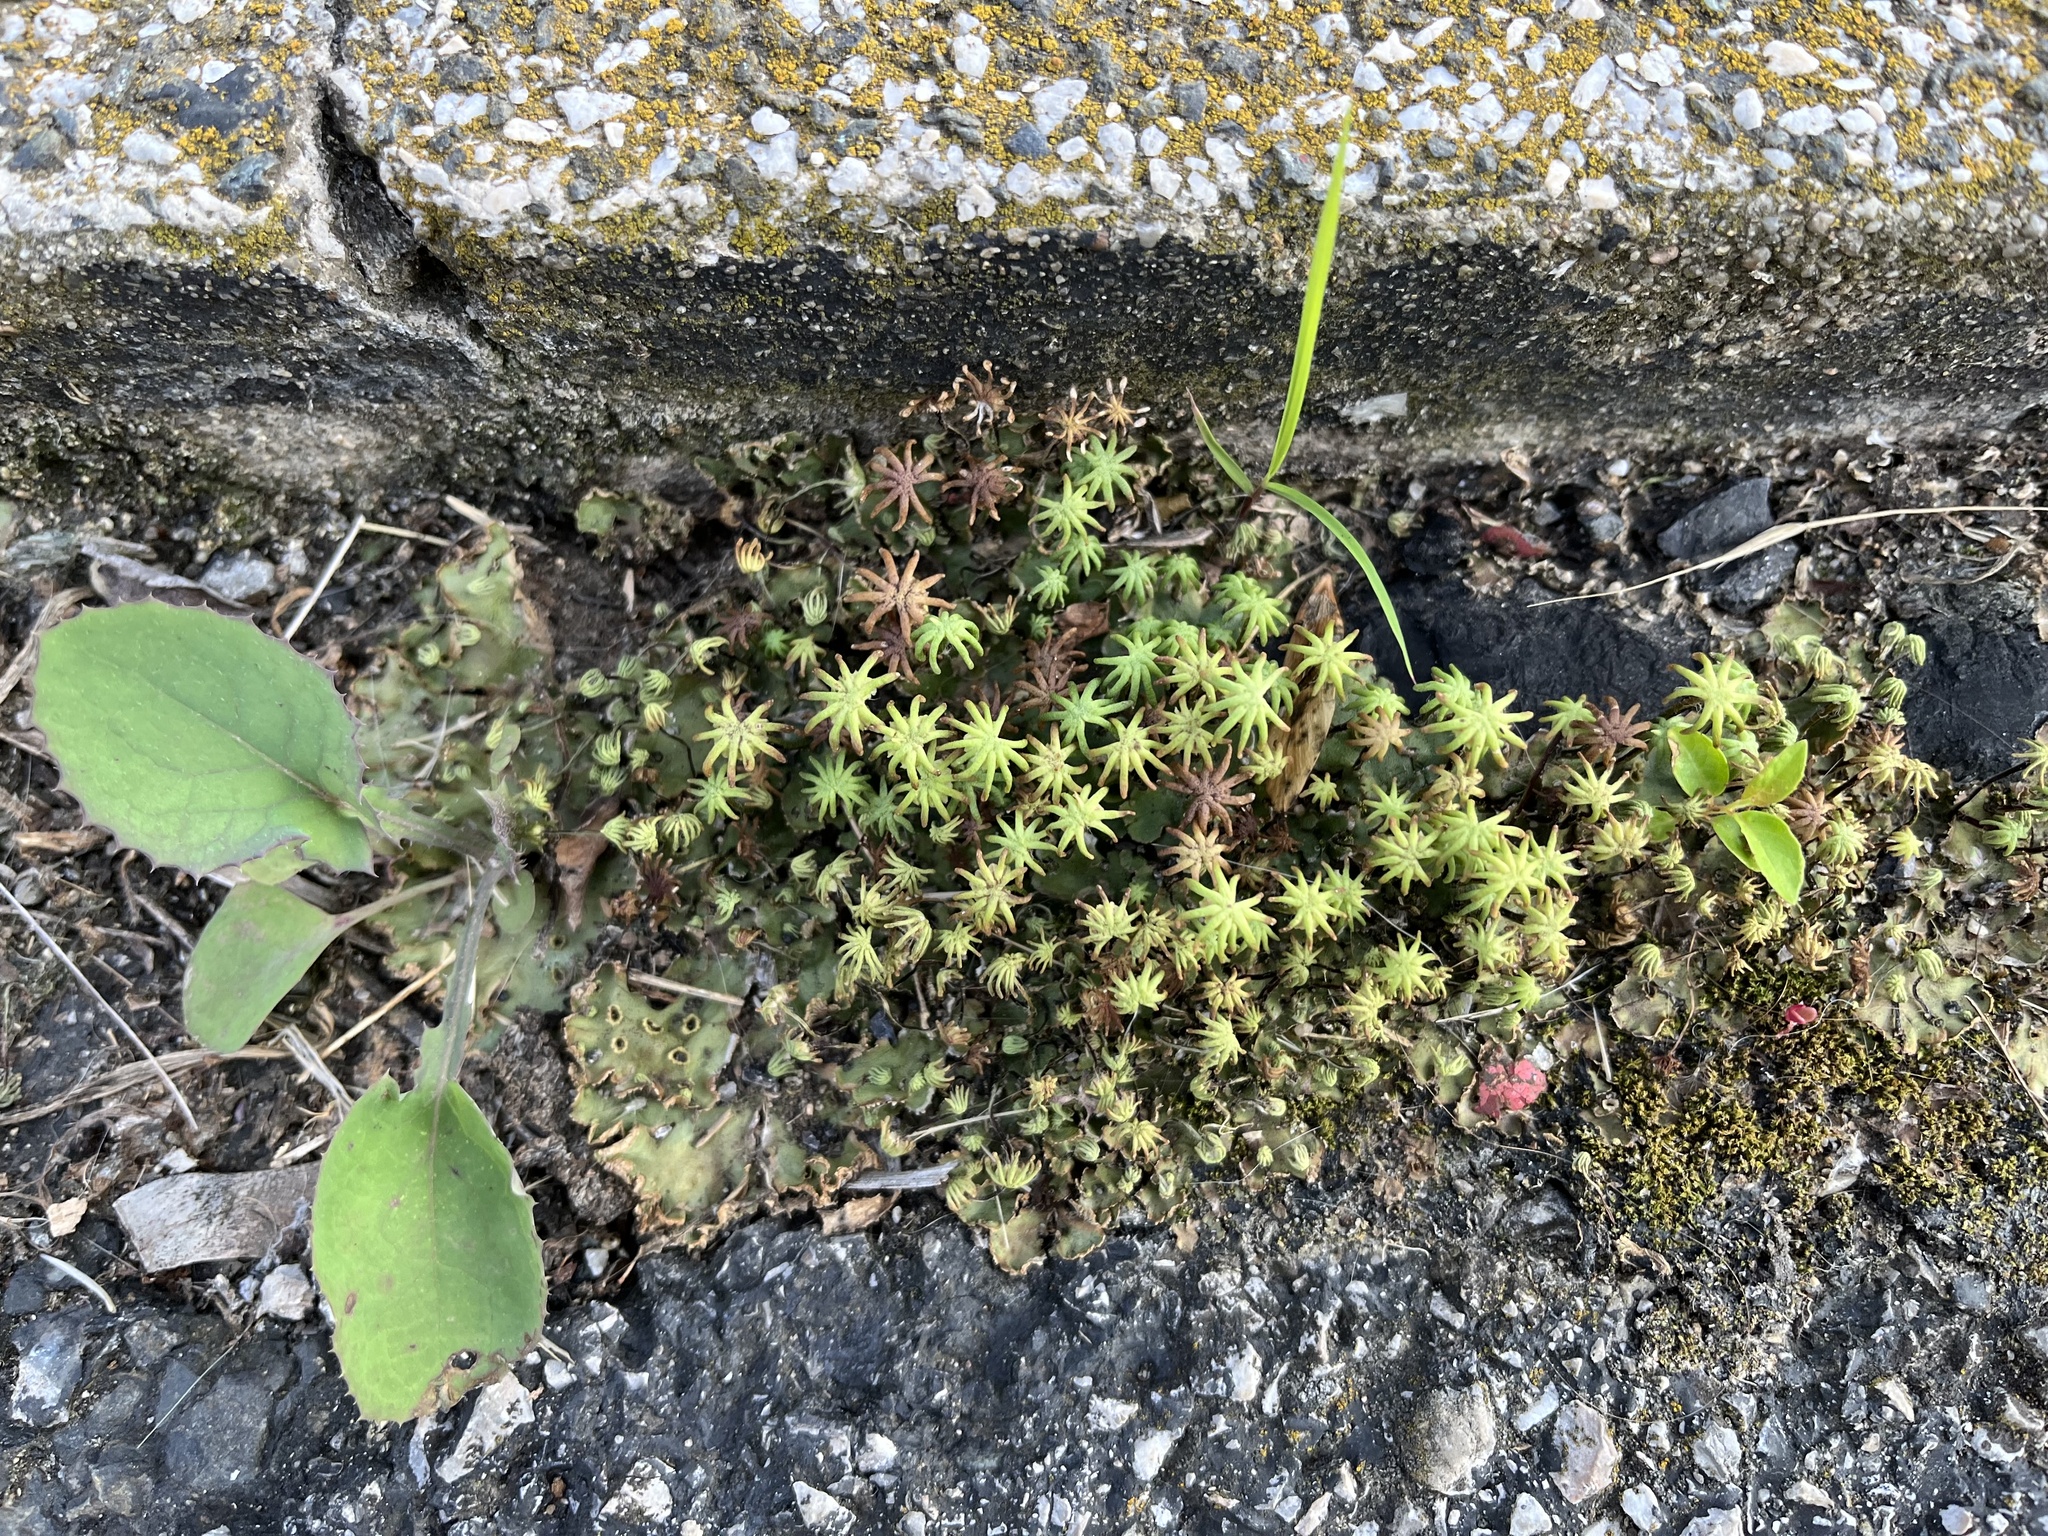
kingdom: Plantae
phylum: Marchantiophyta
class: Marchantiopsida
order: Marchantiales
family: Marchantiaceae
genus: Marchantia
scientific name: Marchantia polymorpha
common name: Common liverwort
